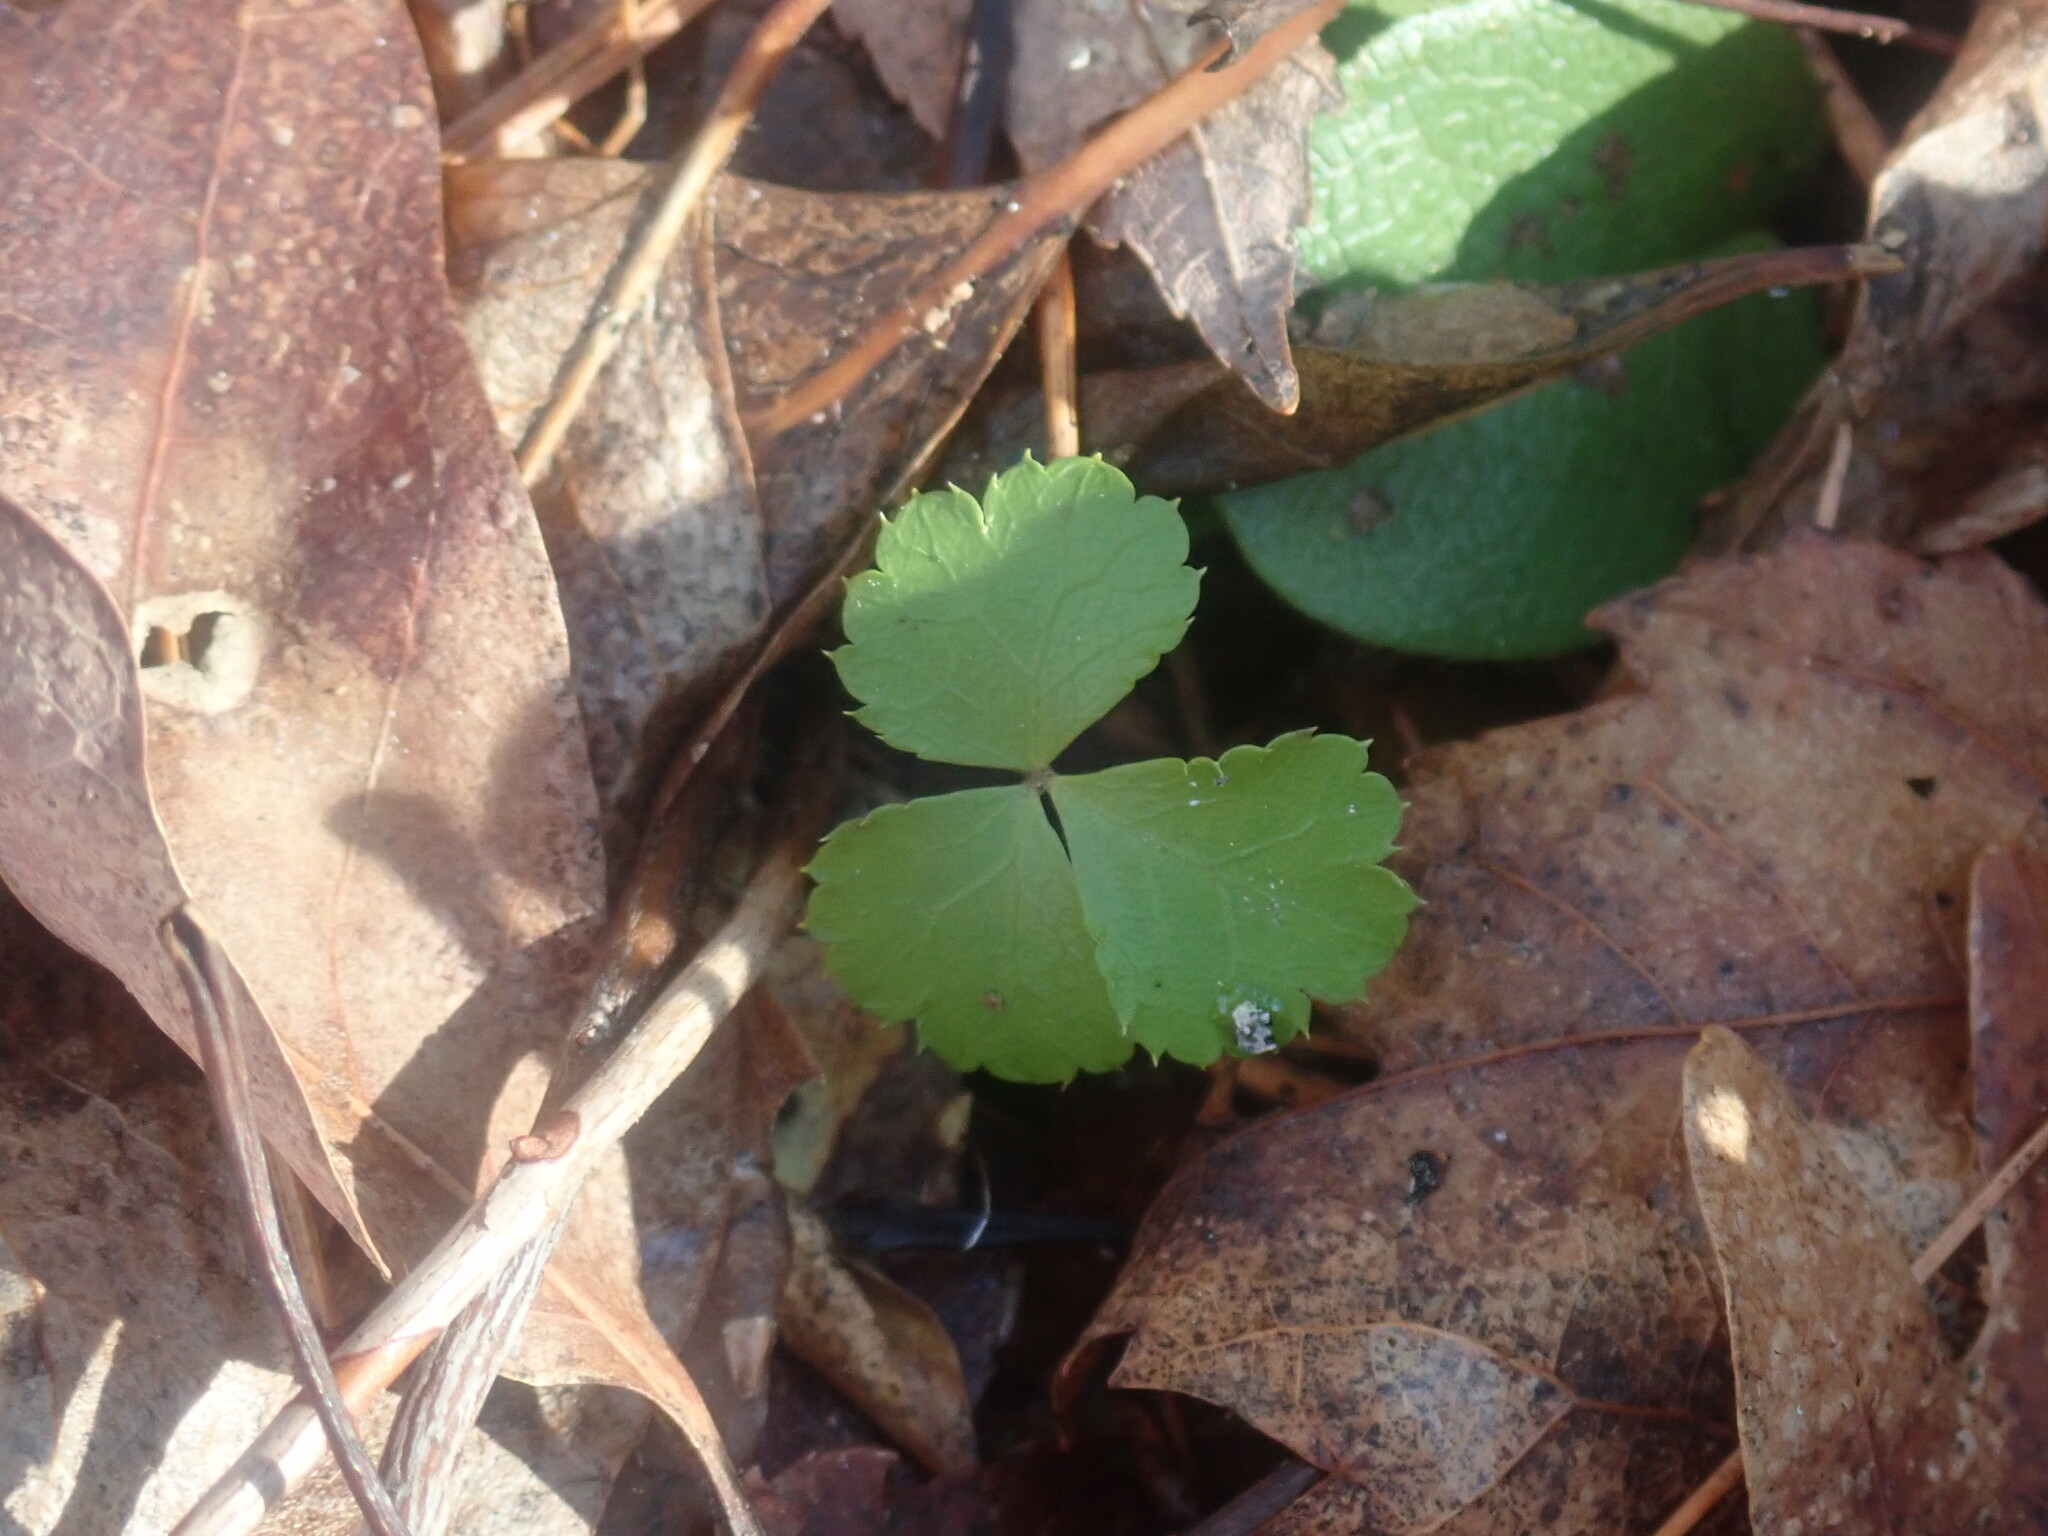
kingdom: Plantae
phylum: Tracheophyta
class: Magnoliopsida
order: Ranunculales
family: Ranunculaceae
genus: Coptis
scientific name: Coptis trifolia
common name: Canker-root
